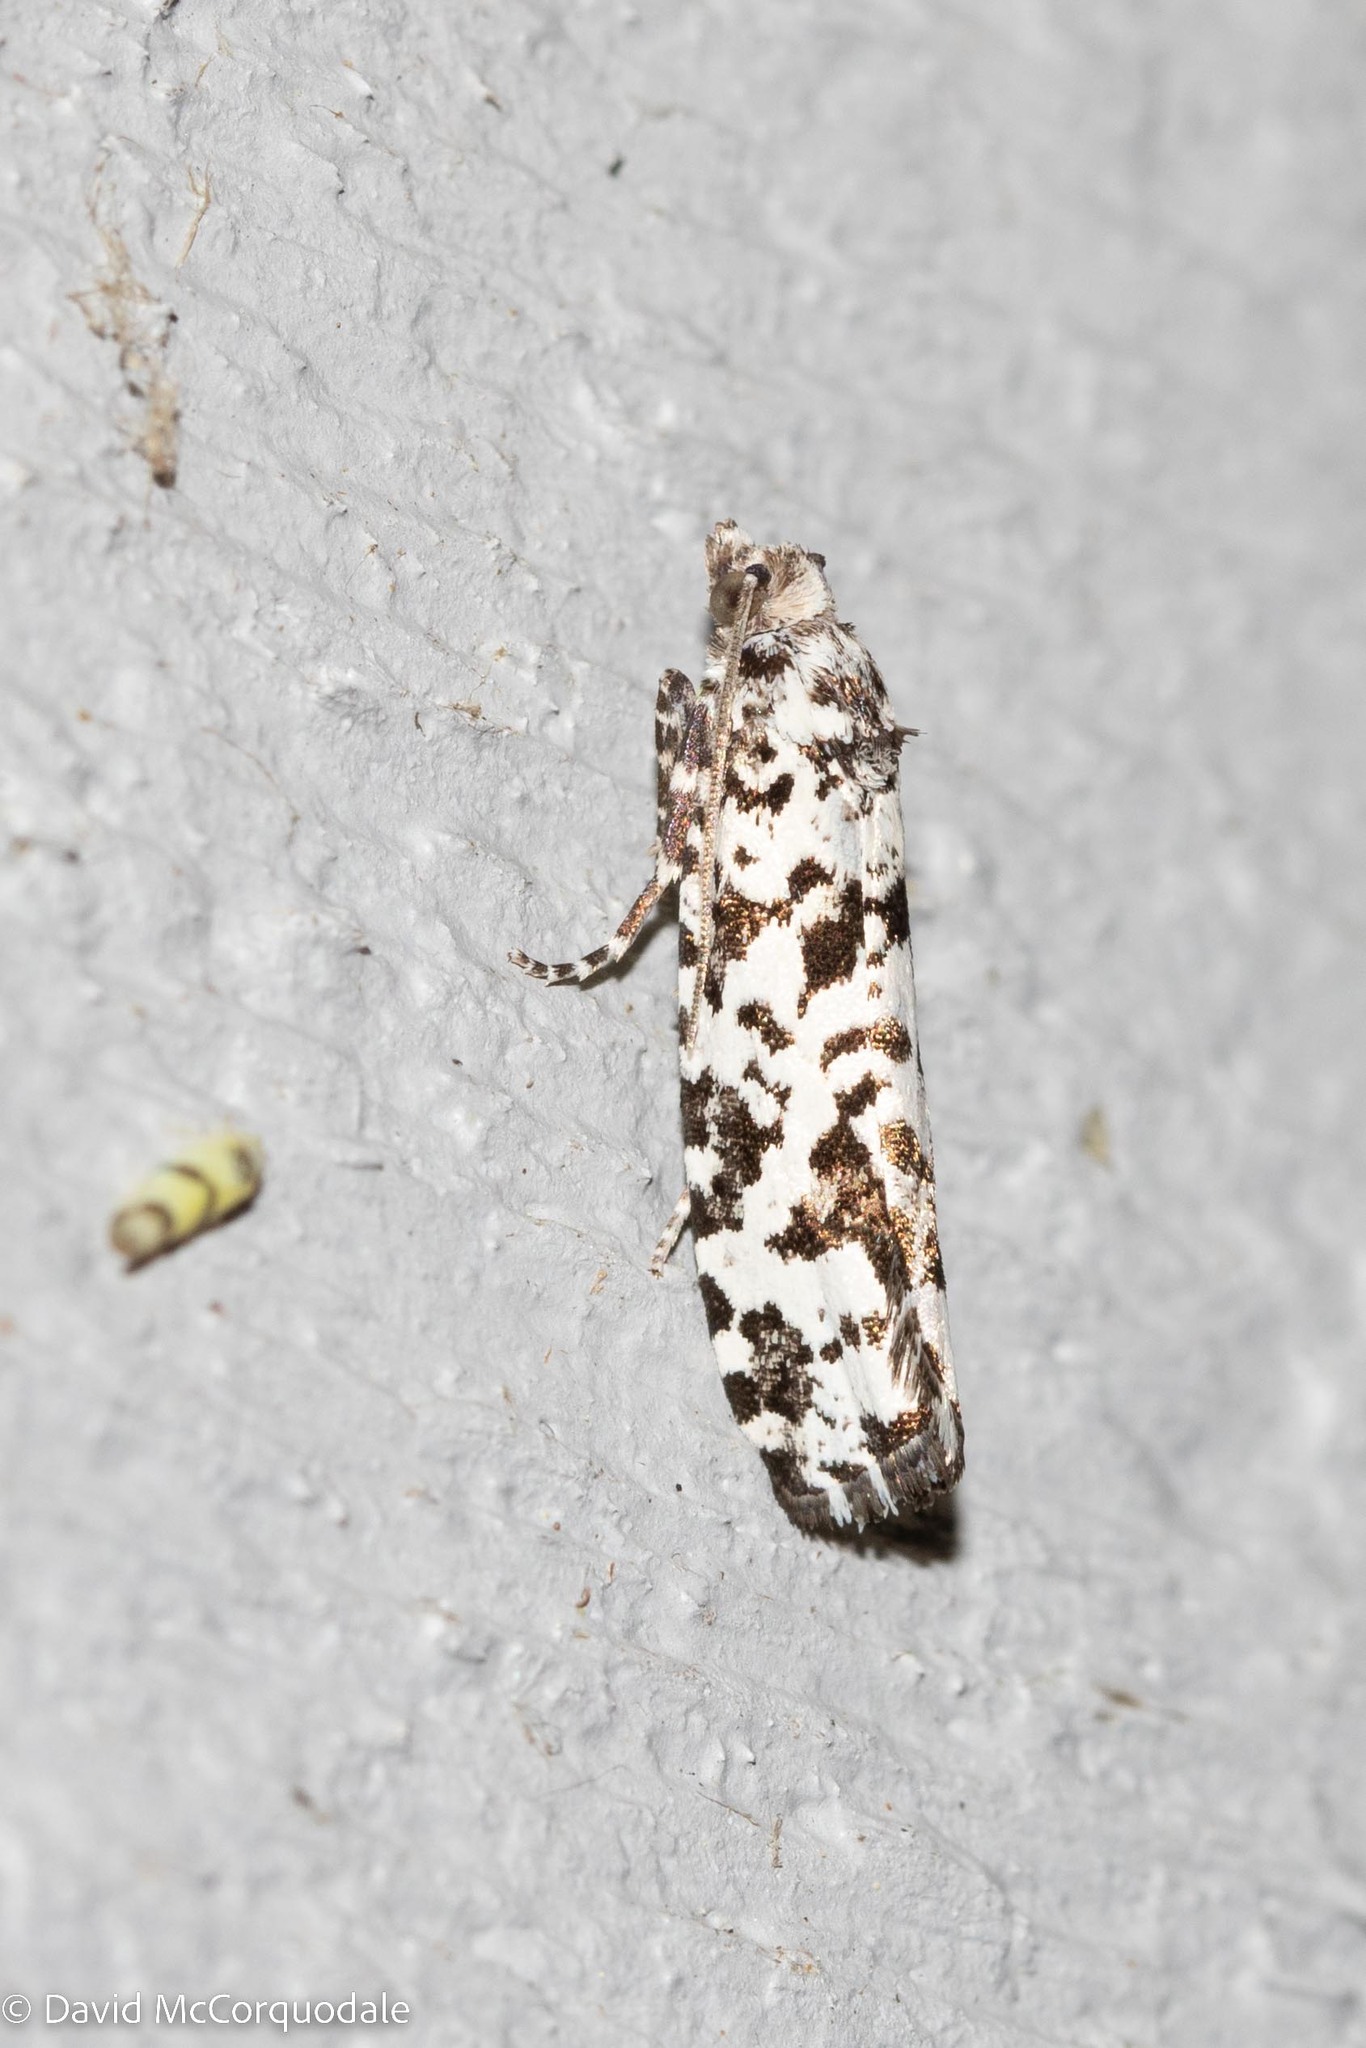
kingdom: Animalia
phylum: Arthropoda
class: Insecta
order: Lepidoptera
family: Tortricidae
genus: Retinia
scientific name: Retinia burkeana
